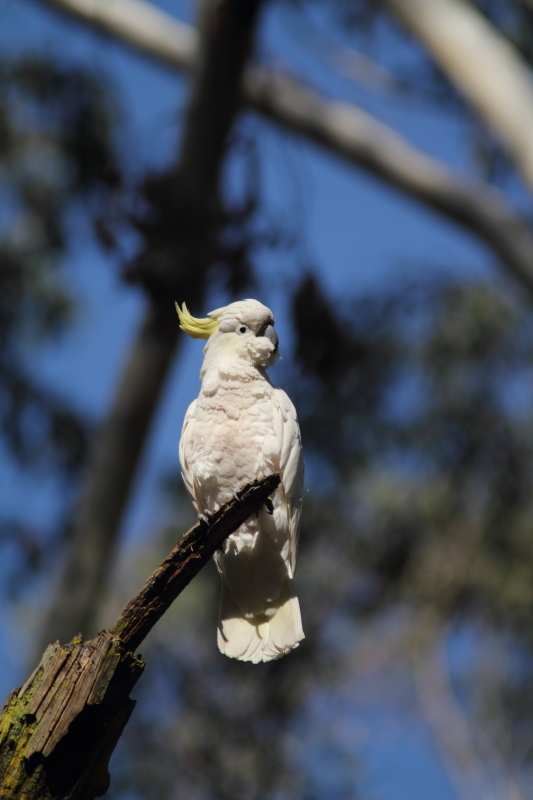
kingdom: Animalia
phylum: Chordata
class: Aves
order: Psittaciformes
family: Psittacidae
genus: Cacatua
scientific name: Cacatua galerita
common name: Sulphur-crested cockatoo
